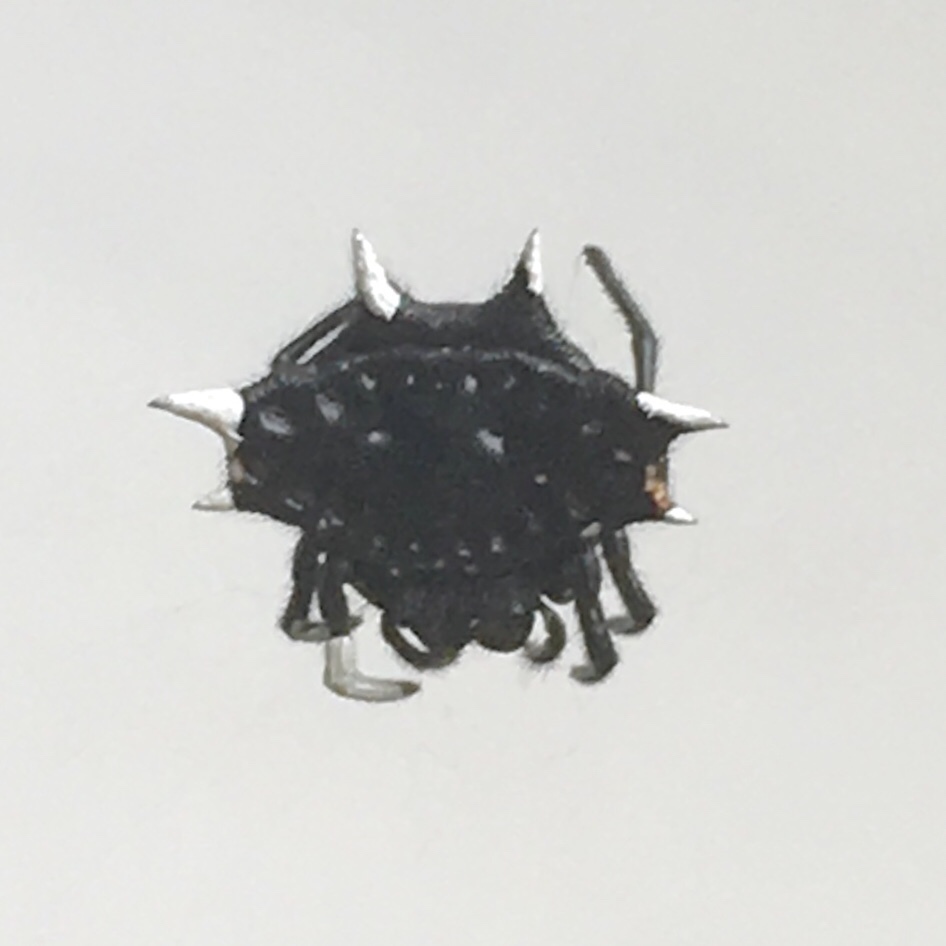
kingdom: Animalia
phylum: Arthropoda
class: Arachnida
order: Araneae
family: Araneidae
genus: Gasteracantha
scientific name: Gasteracantha cancriformis
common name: Orb weavers
